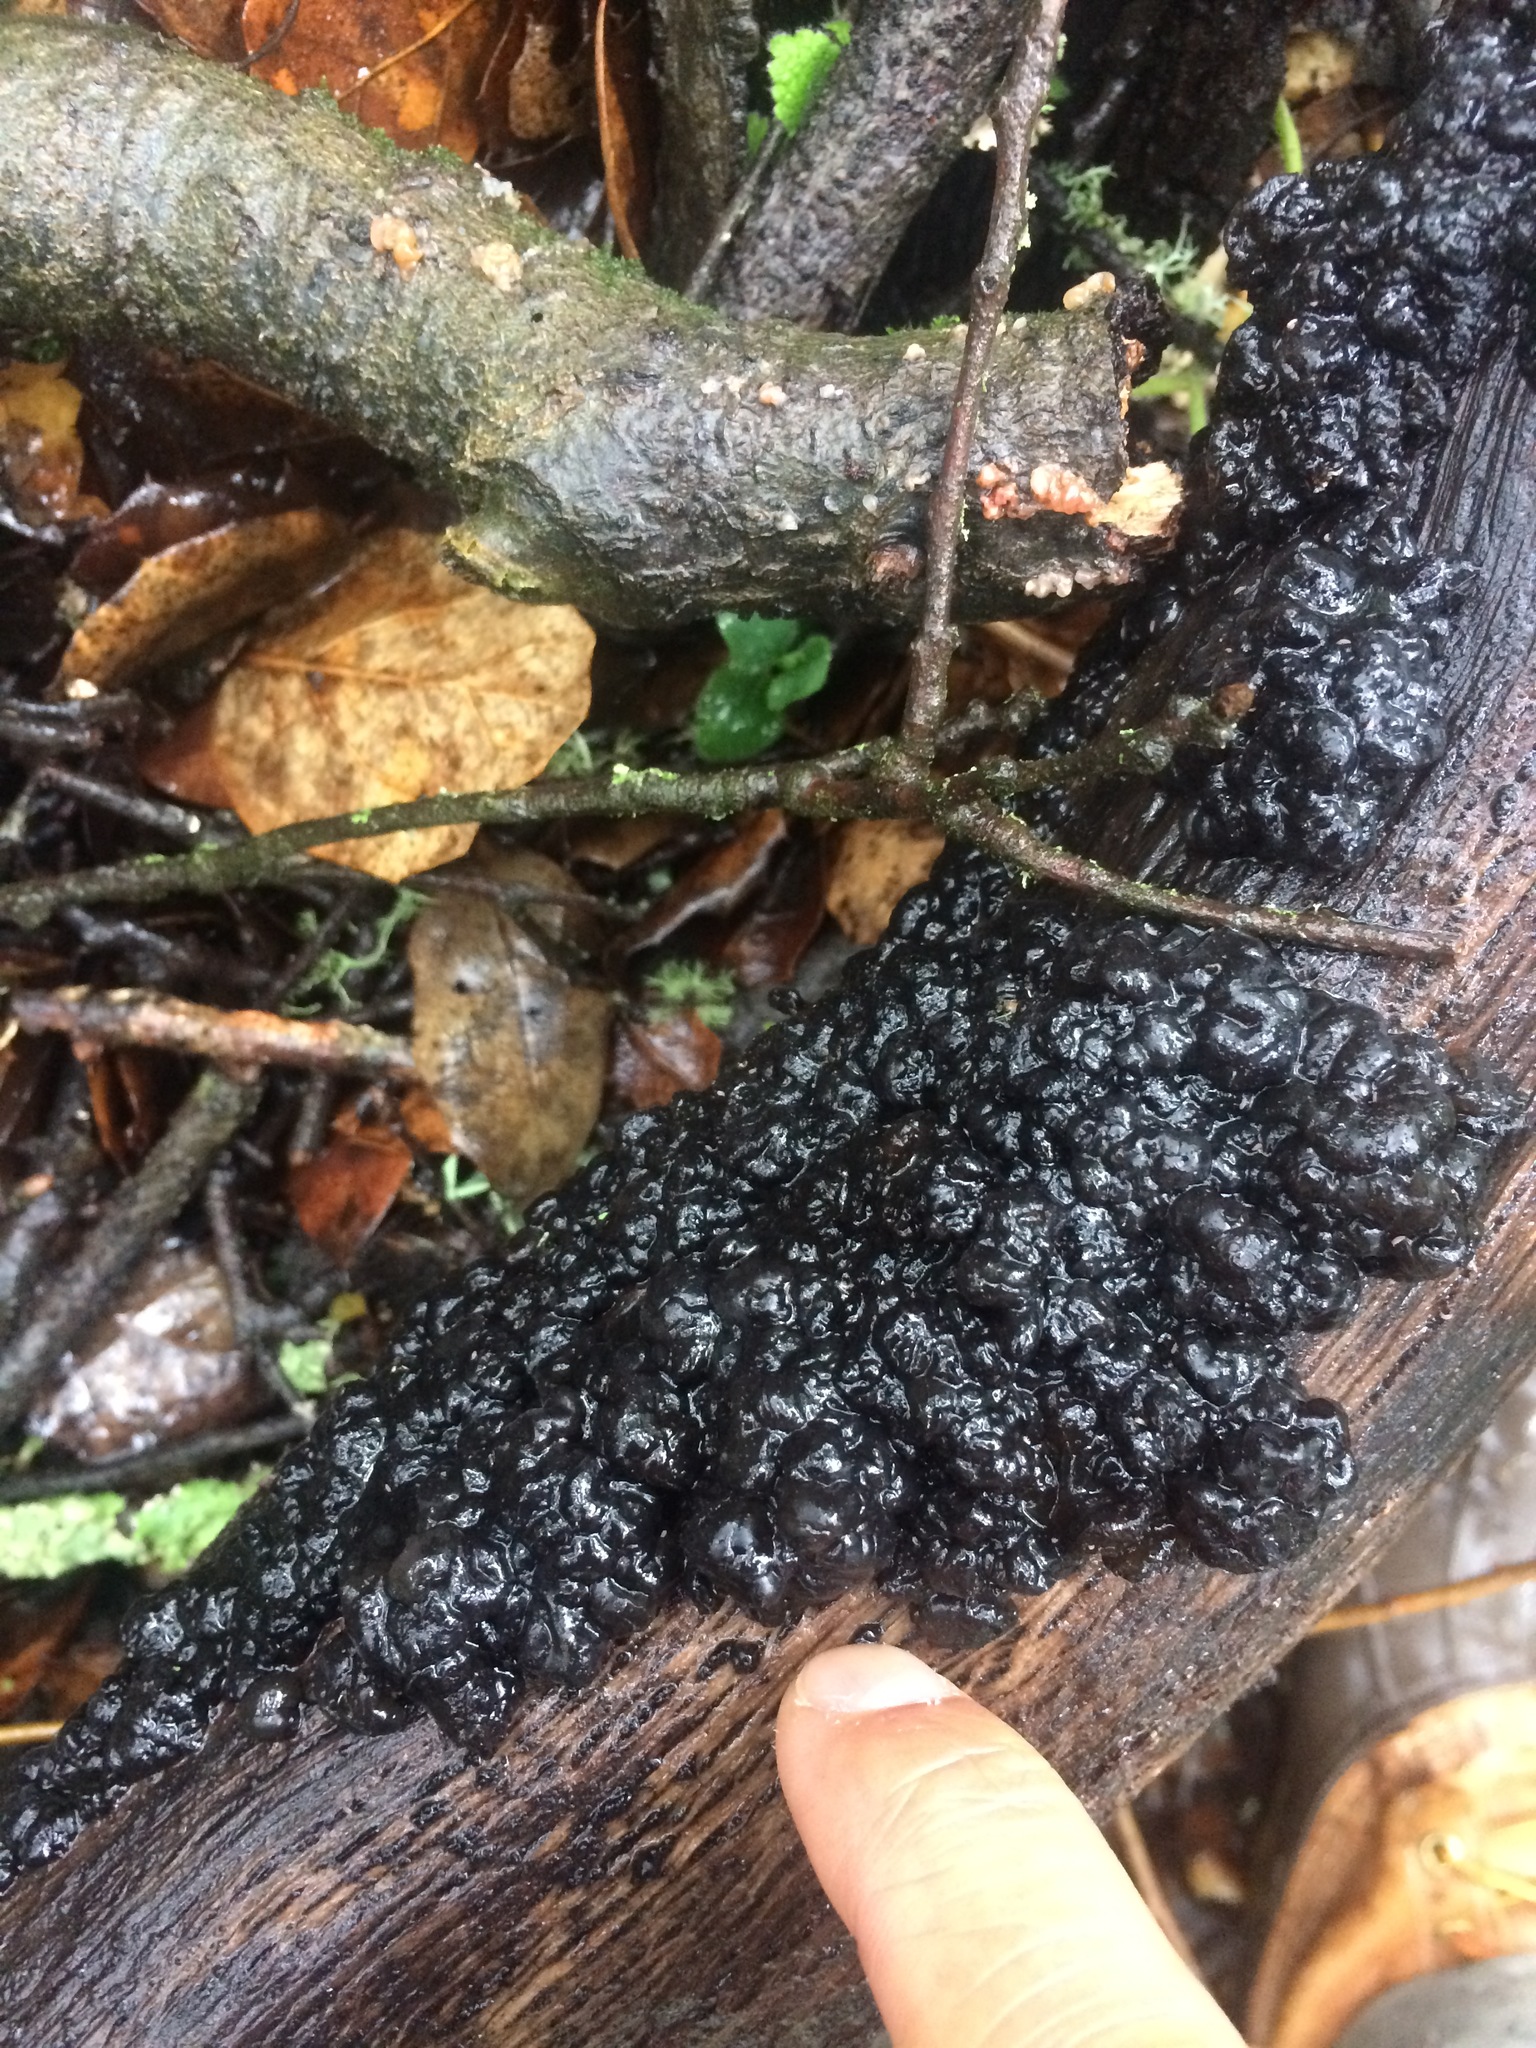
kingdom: Fungi
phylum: Basidiomycota
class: Agaricomycetes
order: Auriculariales
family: Auriculariaceae
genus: Exidia
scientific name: Exidia glandulosa
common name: Witches' butter
